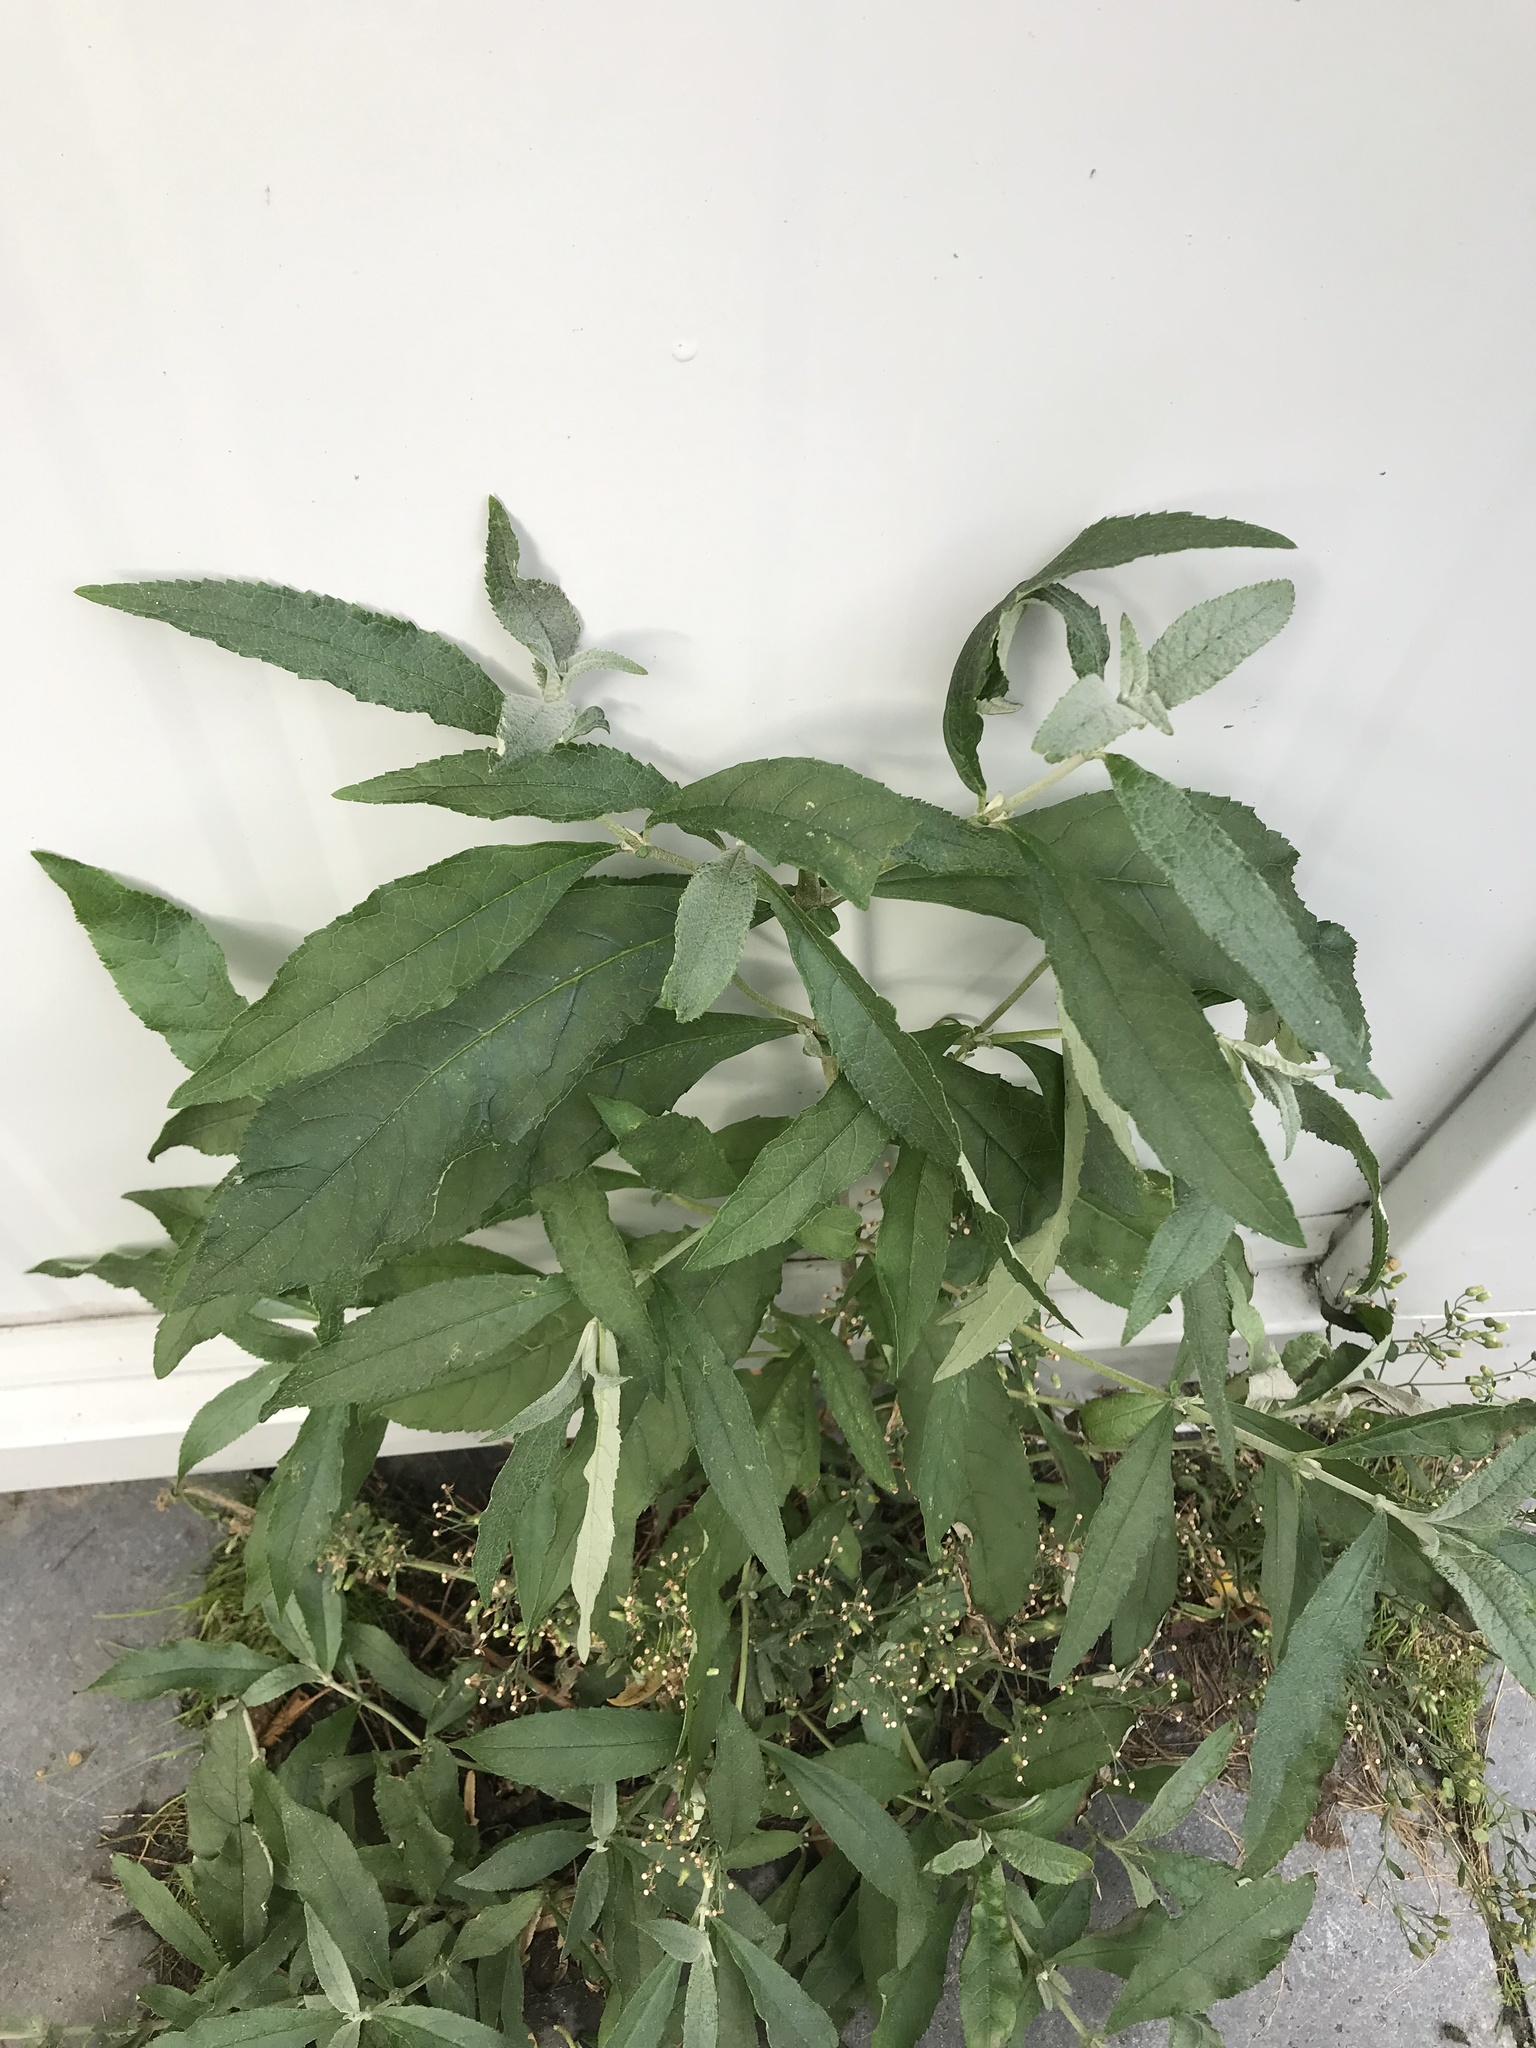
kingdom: Plantae
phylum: Tracheophyta
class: Magnoliopsida
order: Lamiales
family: Scrophulariaceae
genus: Buddleja
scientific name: Buddleja davidii
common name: Butterfly-bush
